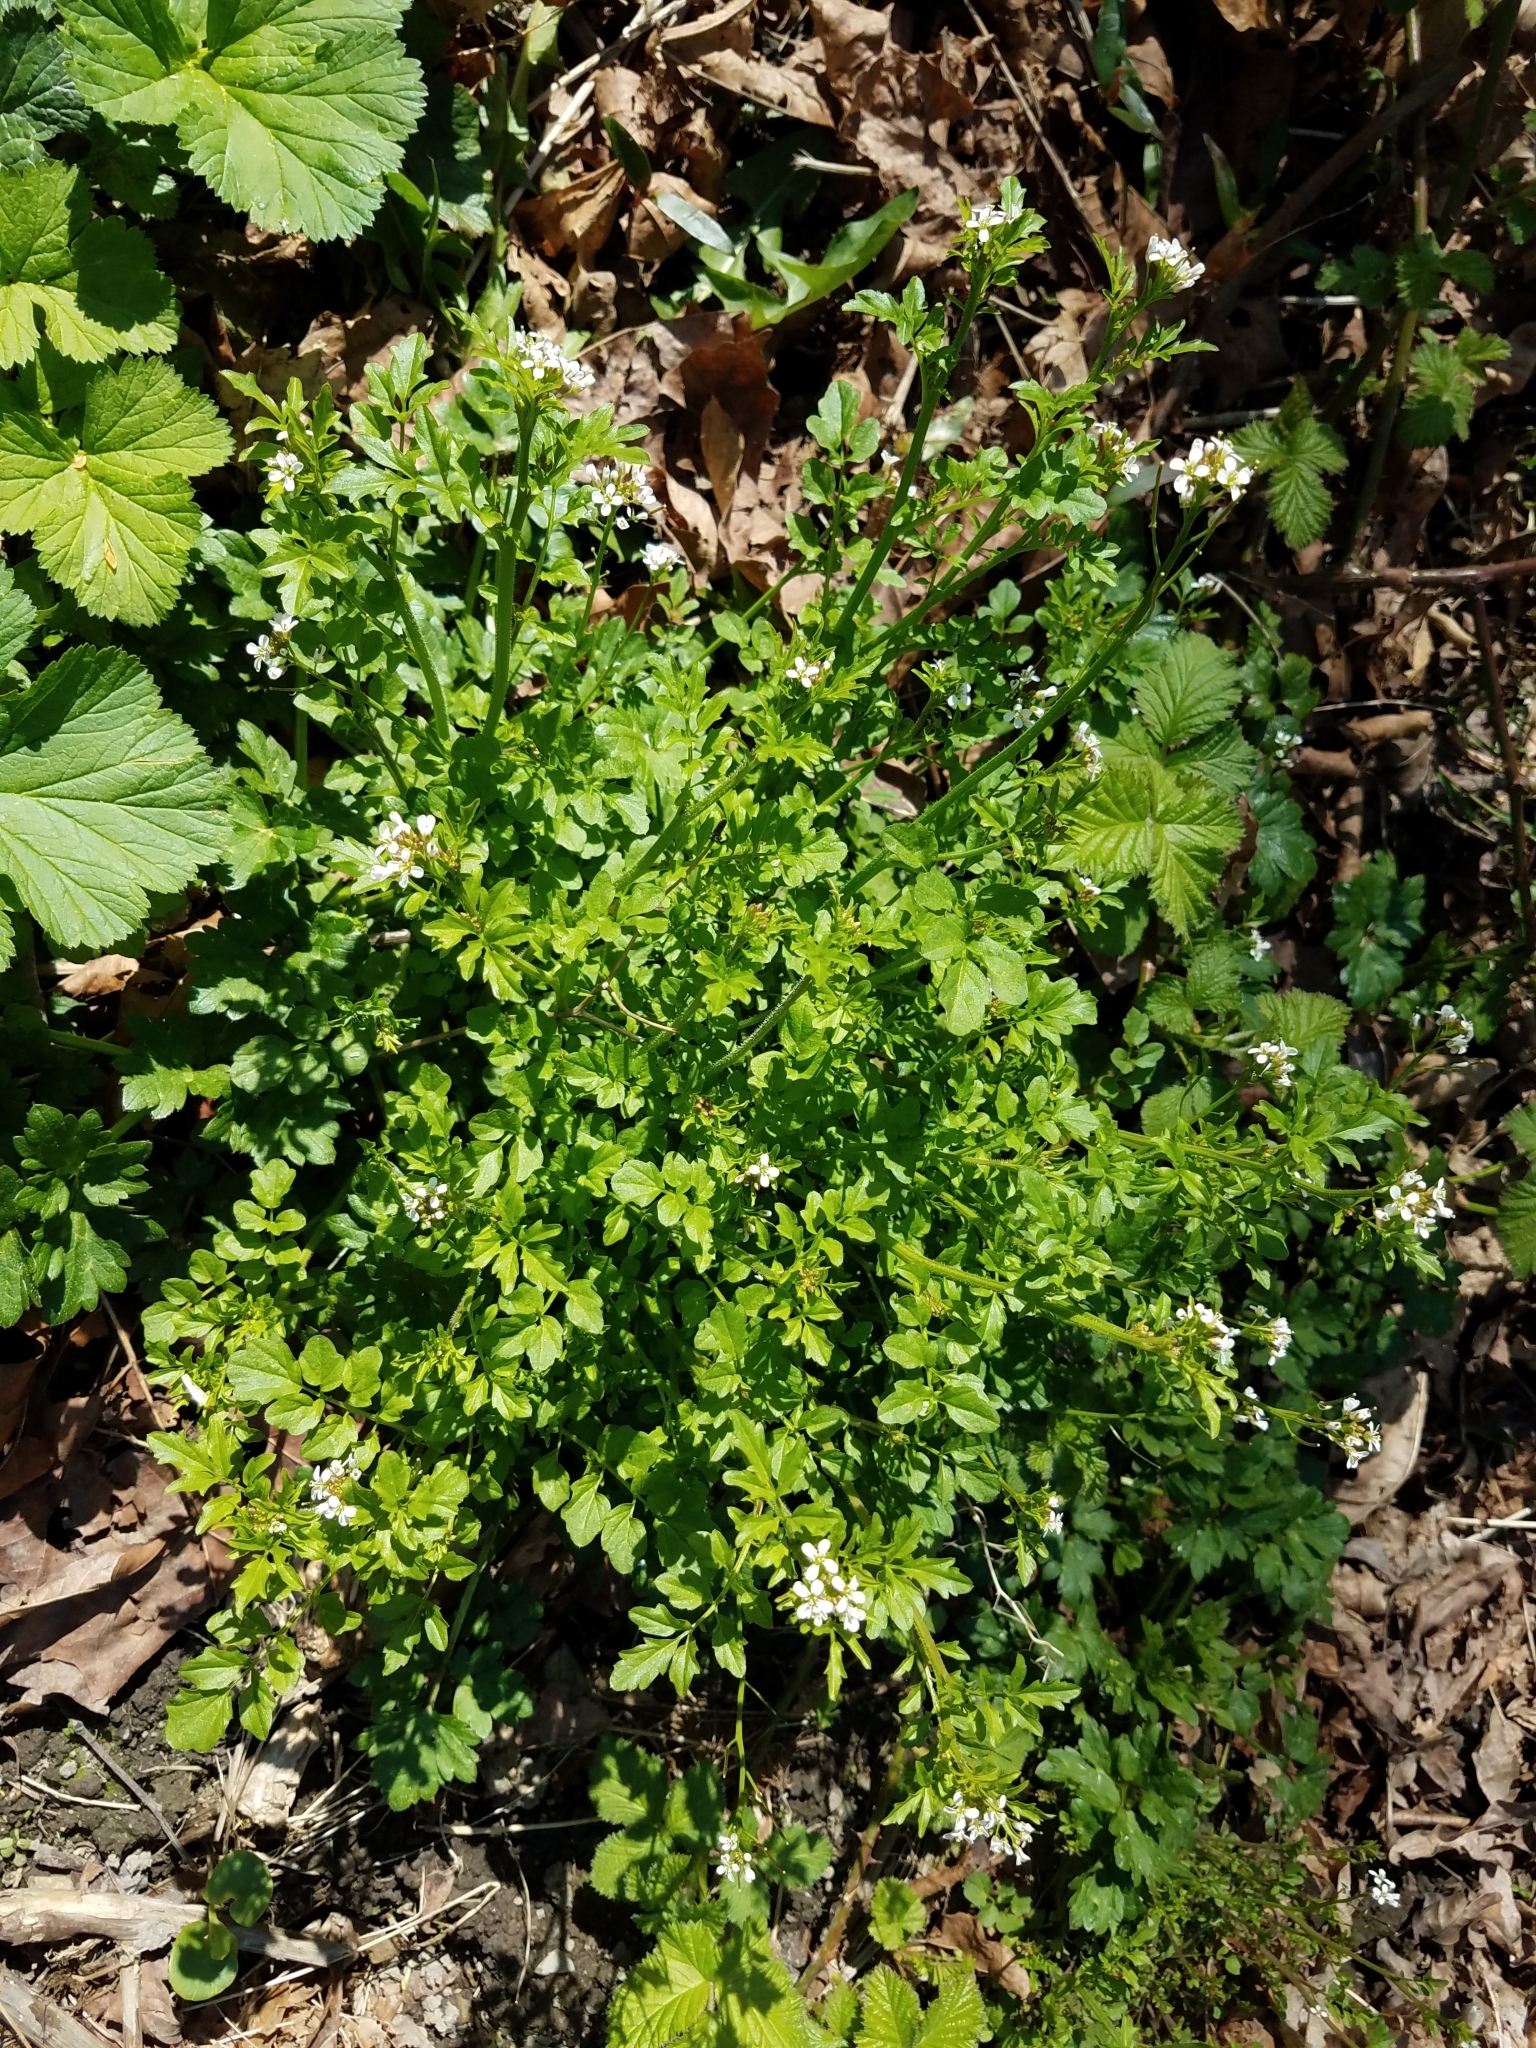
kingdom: Plantae
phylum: Tracheophyta
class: Magnoliopsida
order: Brassicales
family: Brassicaceae
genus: Cardamine
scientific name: Cardamine flexuosa
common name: Woodland bittercress
